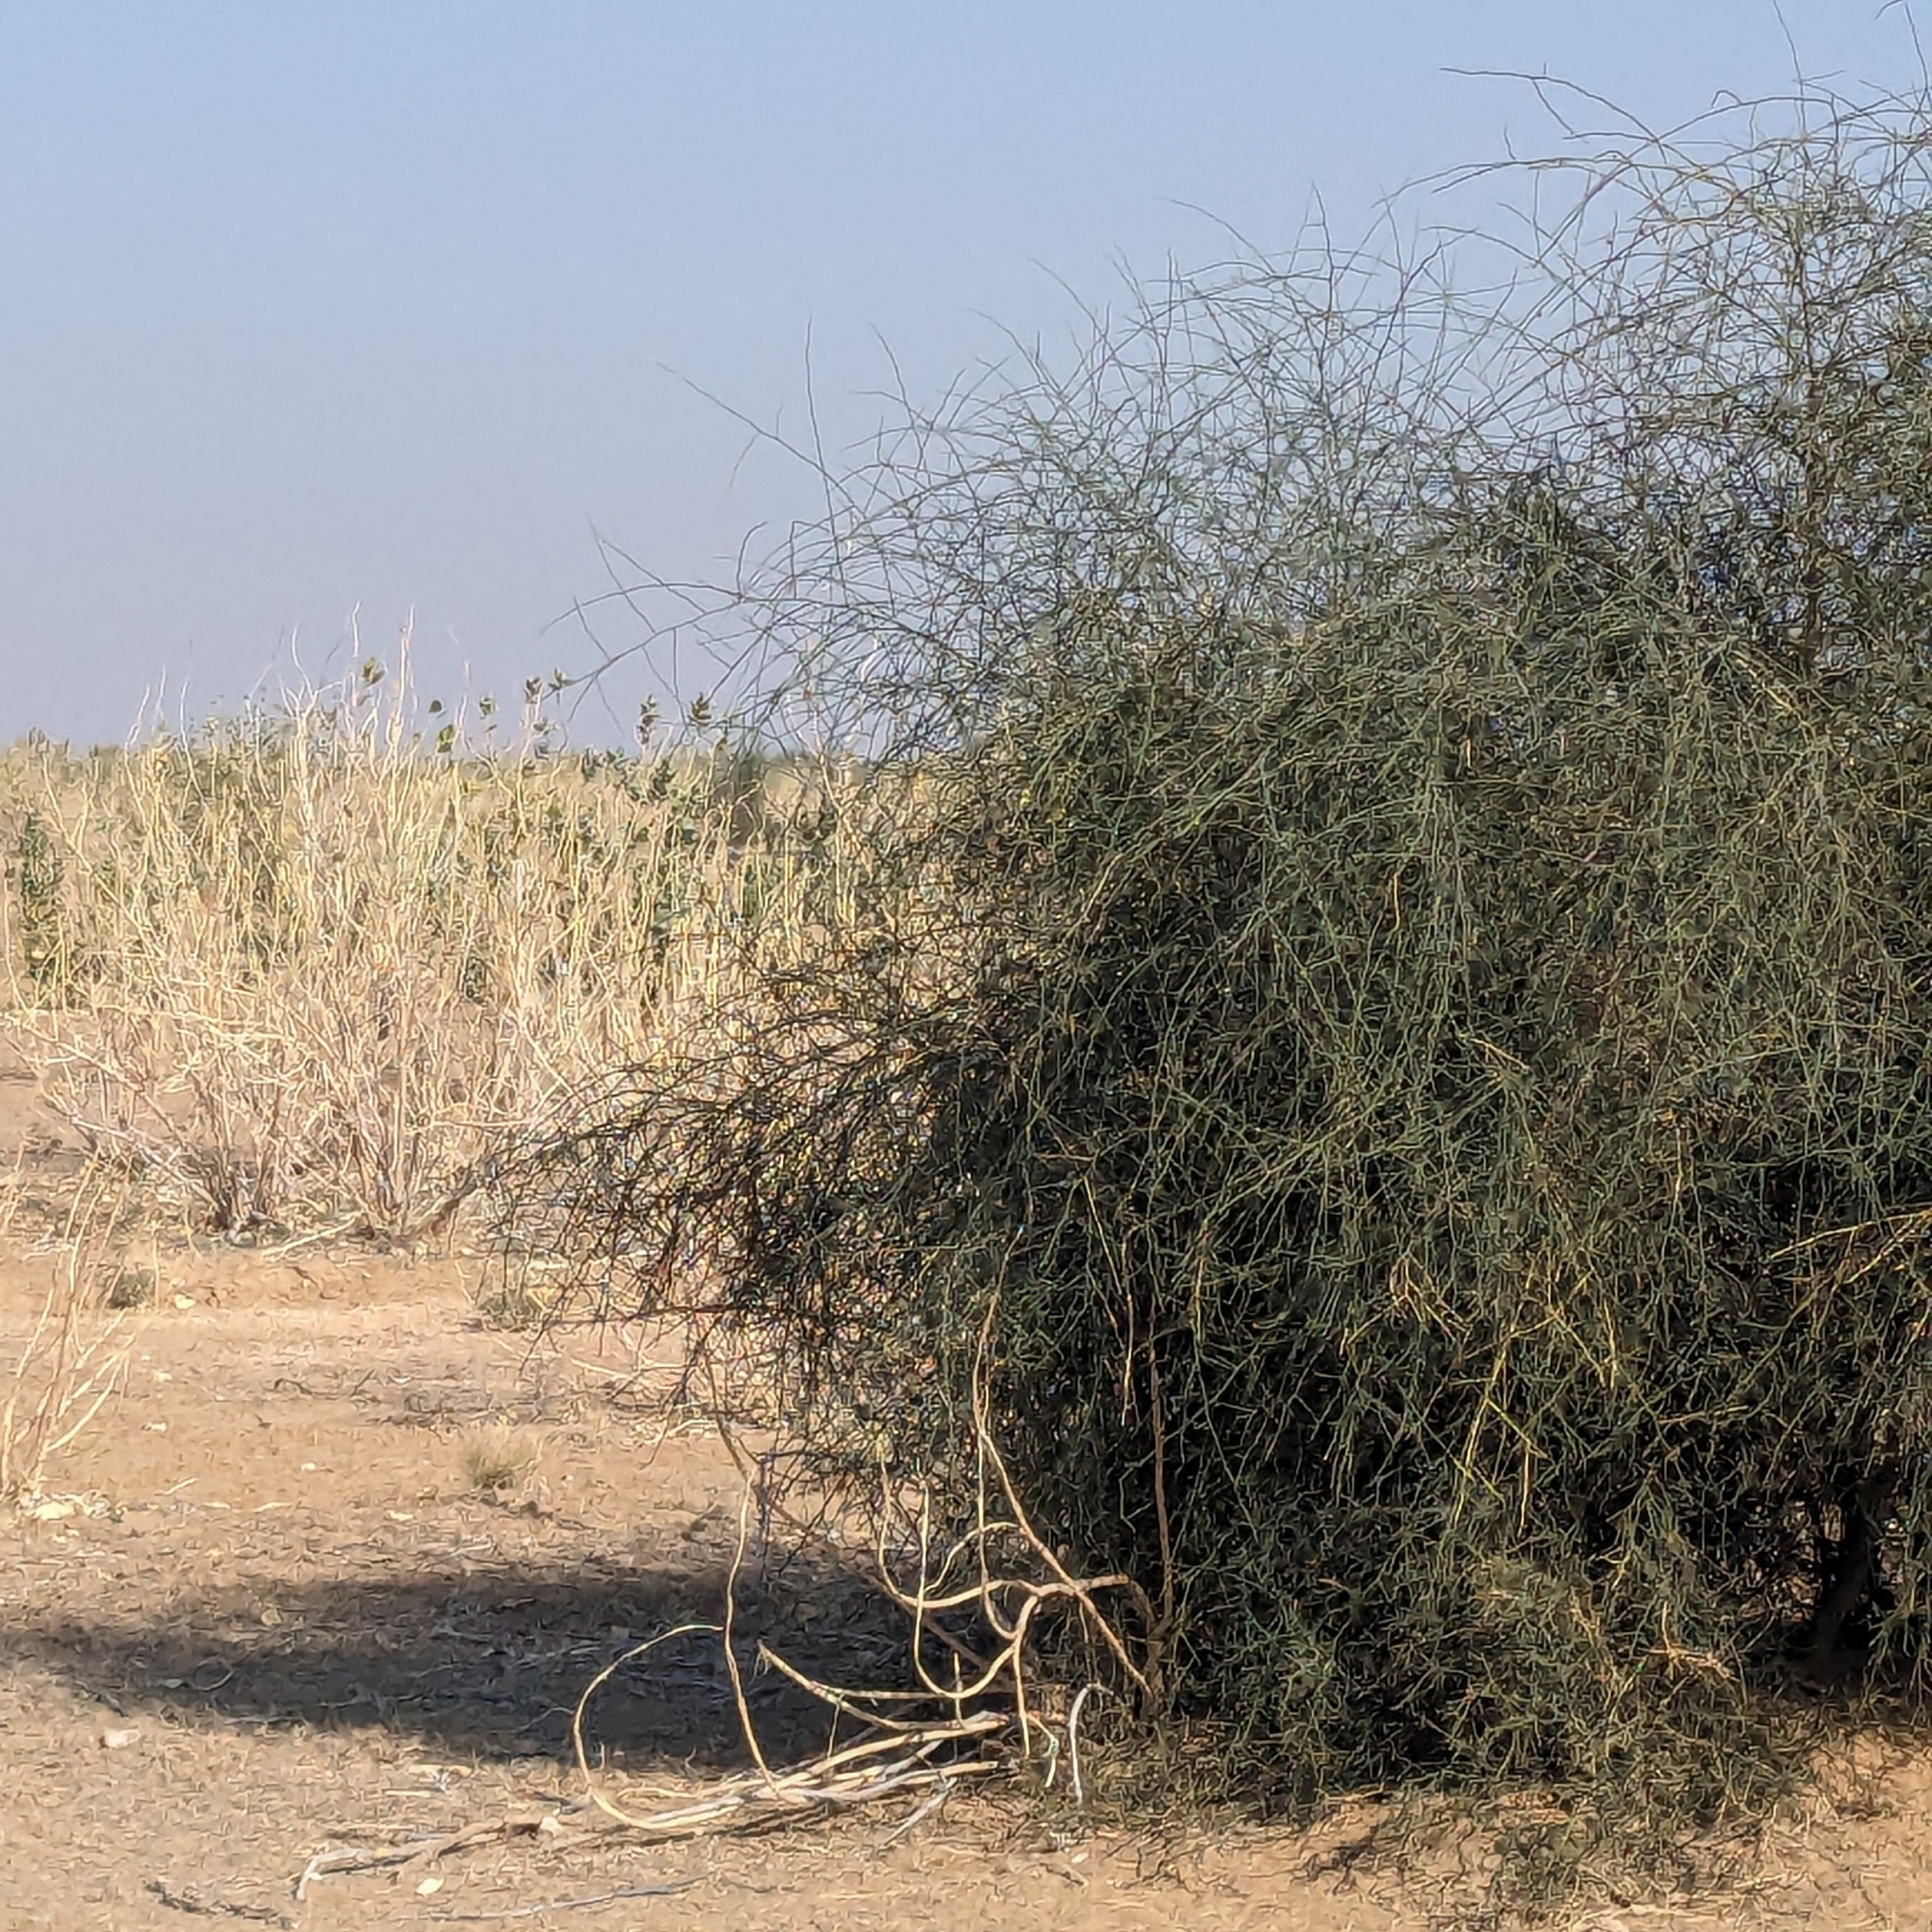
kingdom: Plantae
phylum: Tracheophyta
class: Magnoliopsida
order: Brassicales
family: Capparaceae
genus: Capparis
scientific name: Capparis decidua
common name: Sodada
